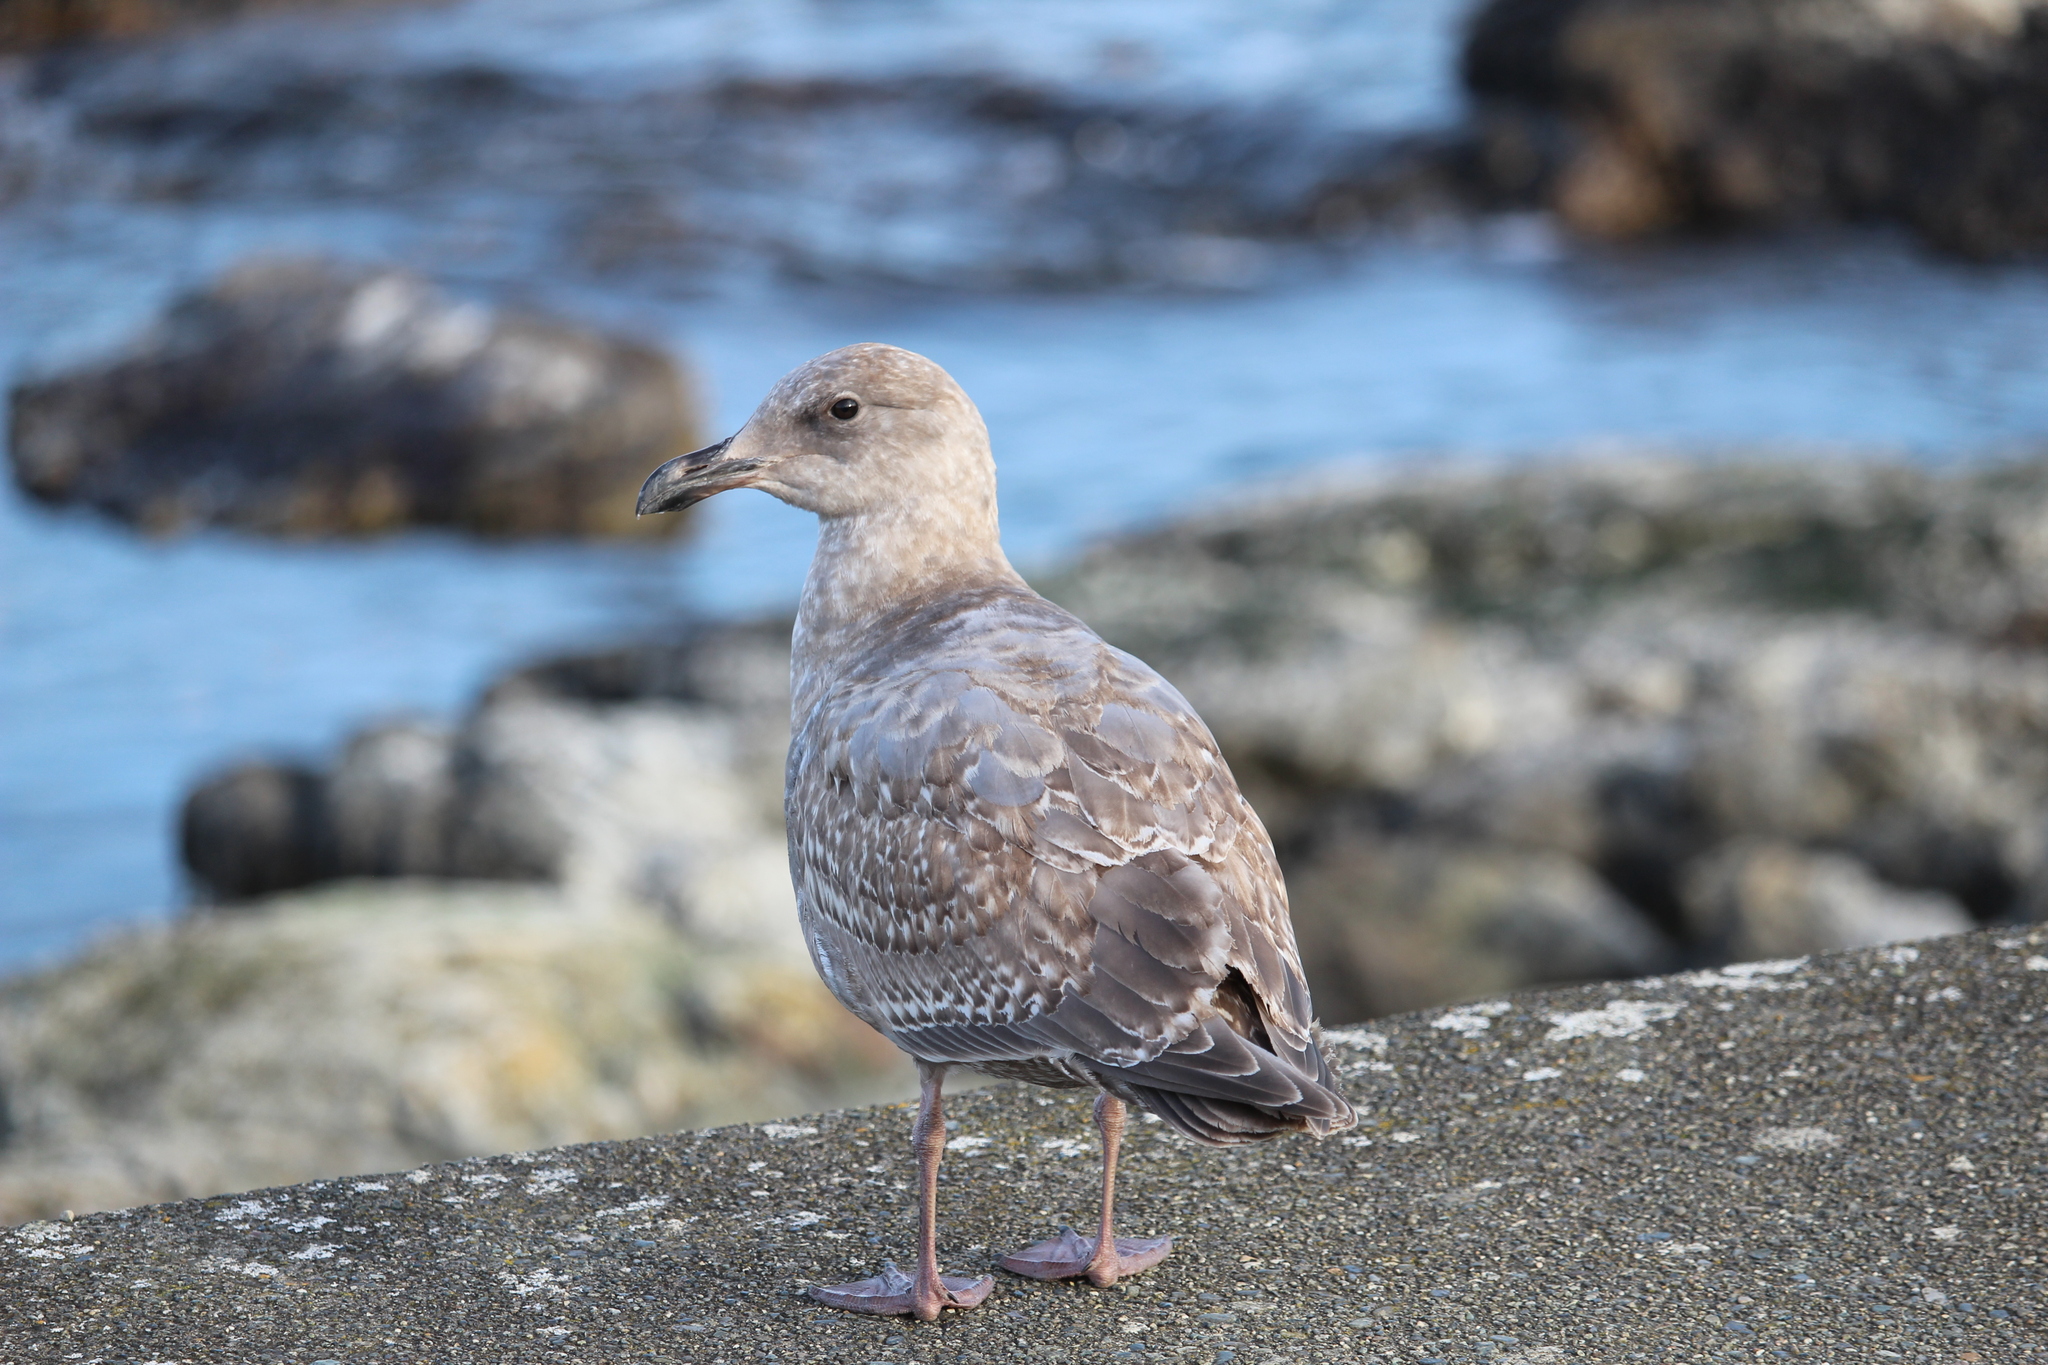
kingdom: Animalia
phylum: Chordata
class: Aves
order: Charadriiformes
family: Laridae
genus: Larus
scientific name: Larus glaucescens
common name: Glaucous-winged gull
